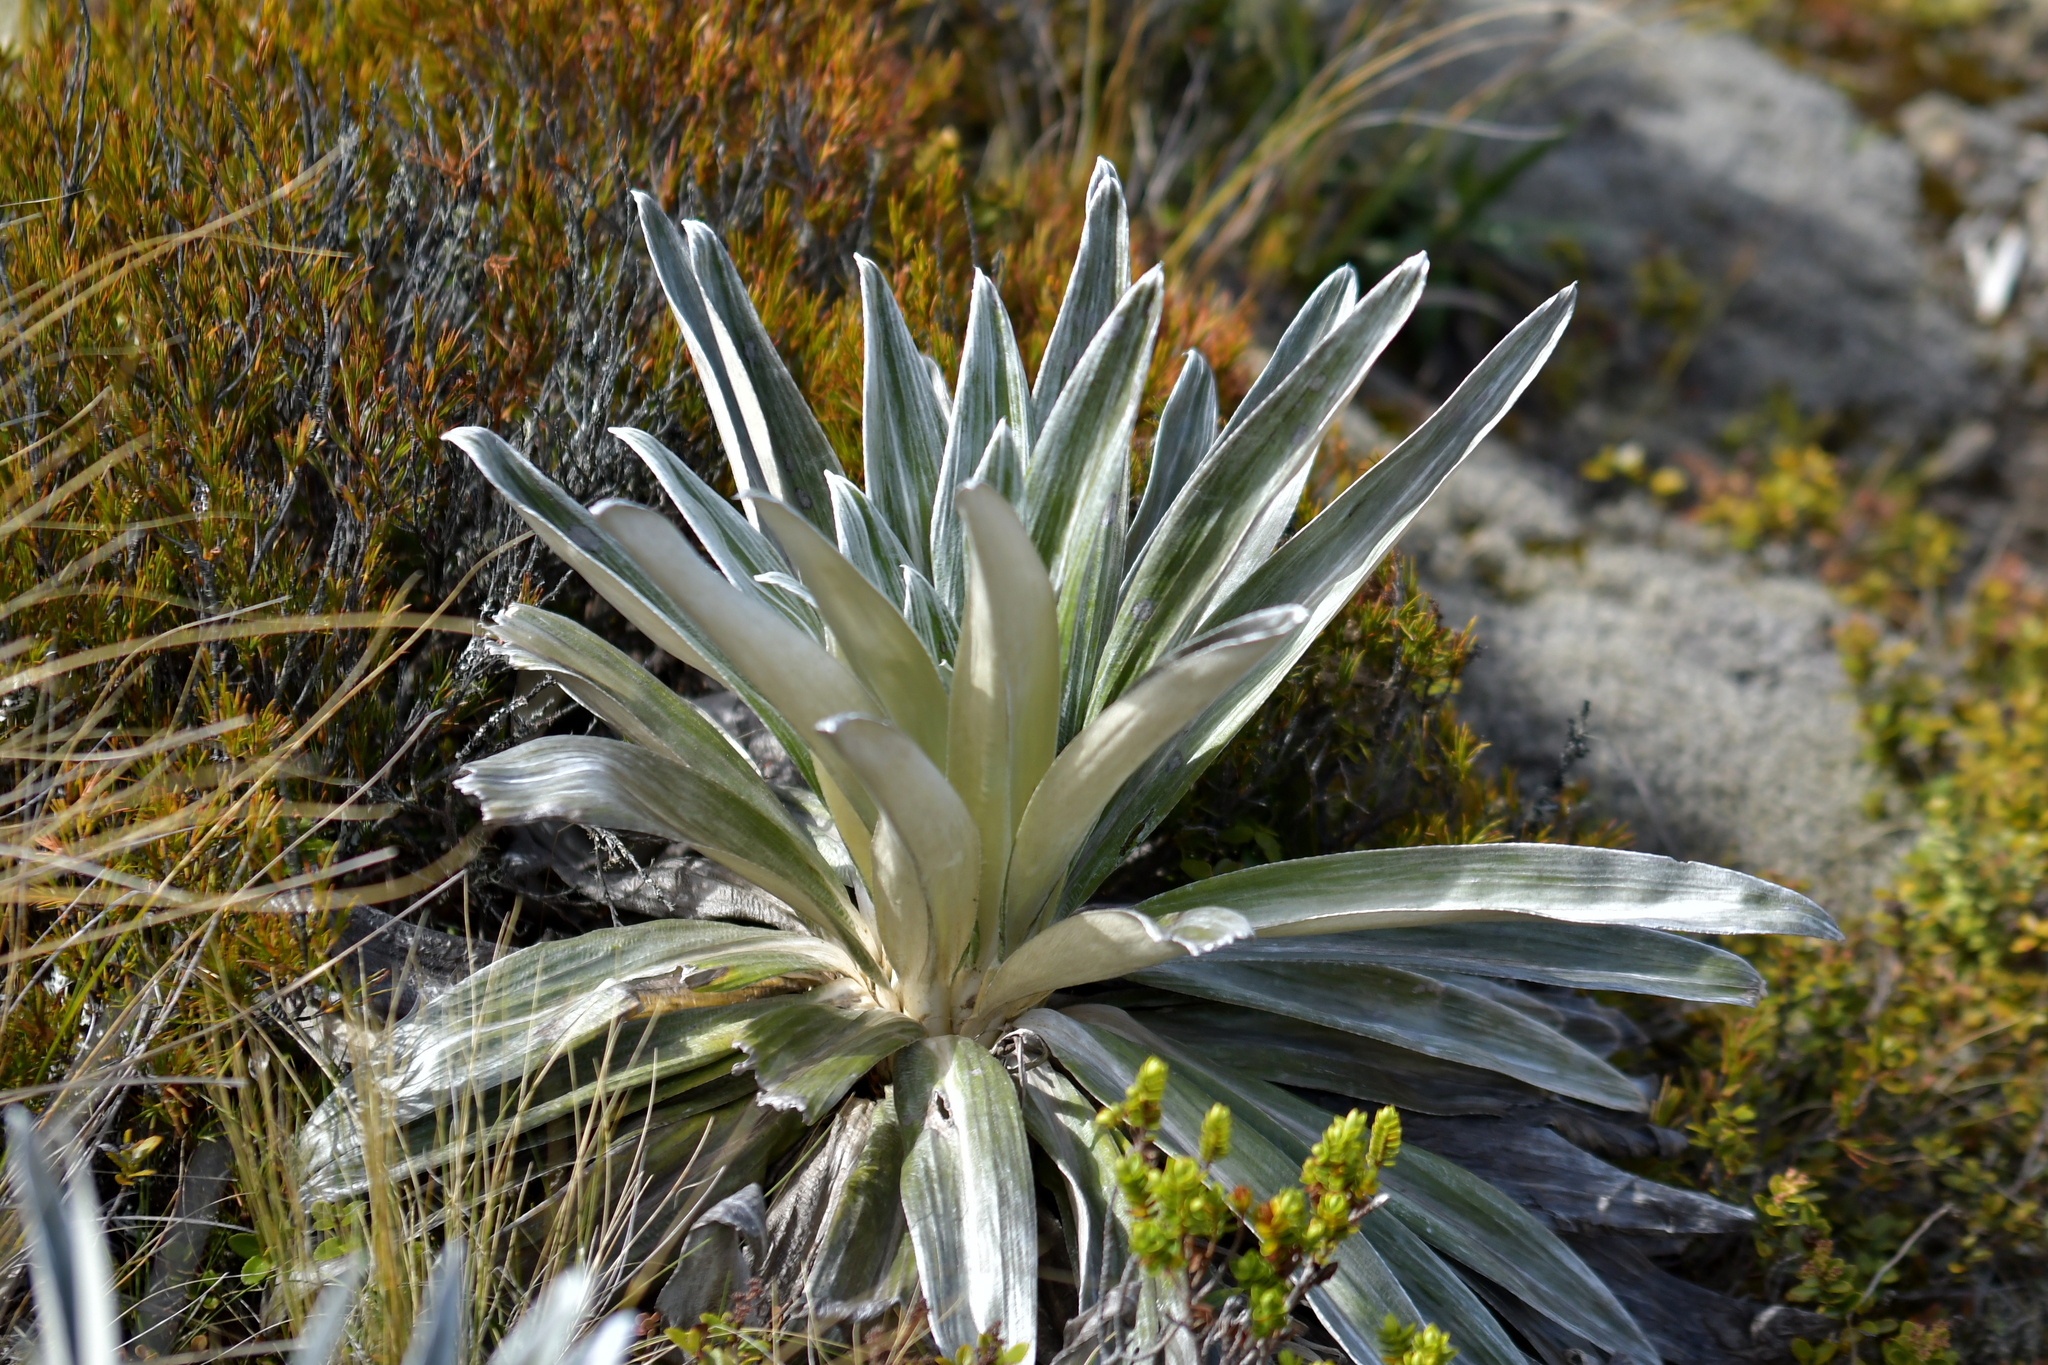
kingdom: Plantae
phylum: Tracheophyta
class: Magnoliopsida
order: Asterales
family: Asteraceae
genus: Celmisia
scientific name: Celmisia semicordata
